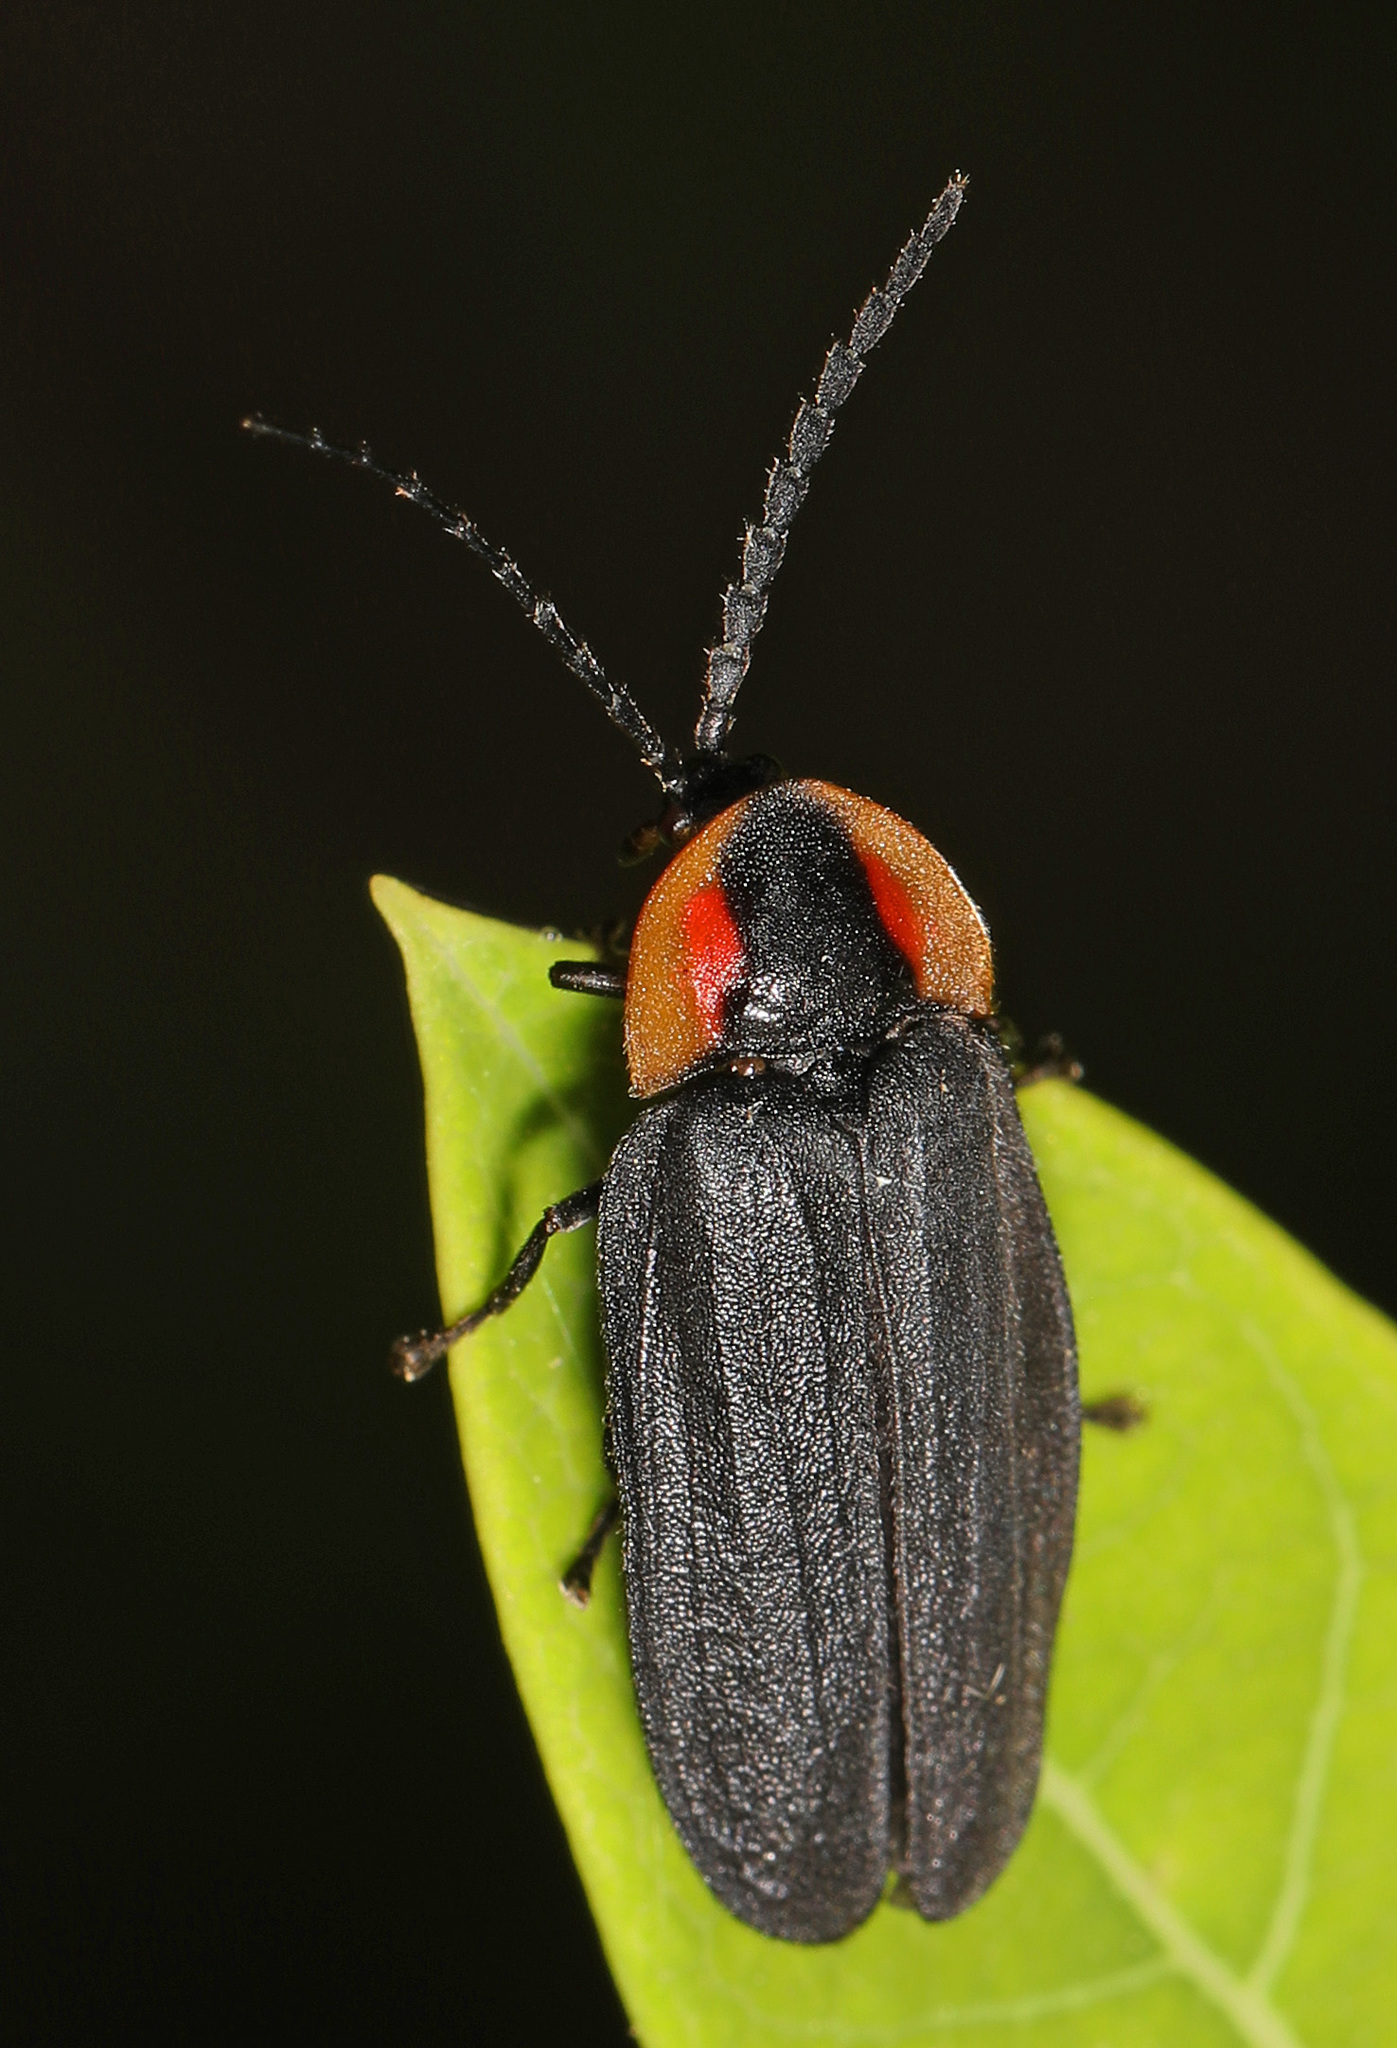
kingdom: Animalia
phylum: Arthropoda
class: Insecta
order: Coleoptera
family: Lampyridae
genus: Lucidota
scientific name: Lucidota atra
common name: Black firefly
